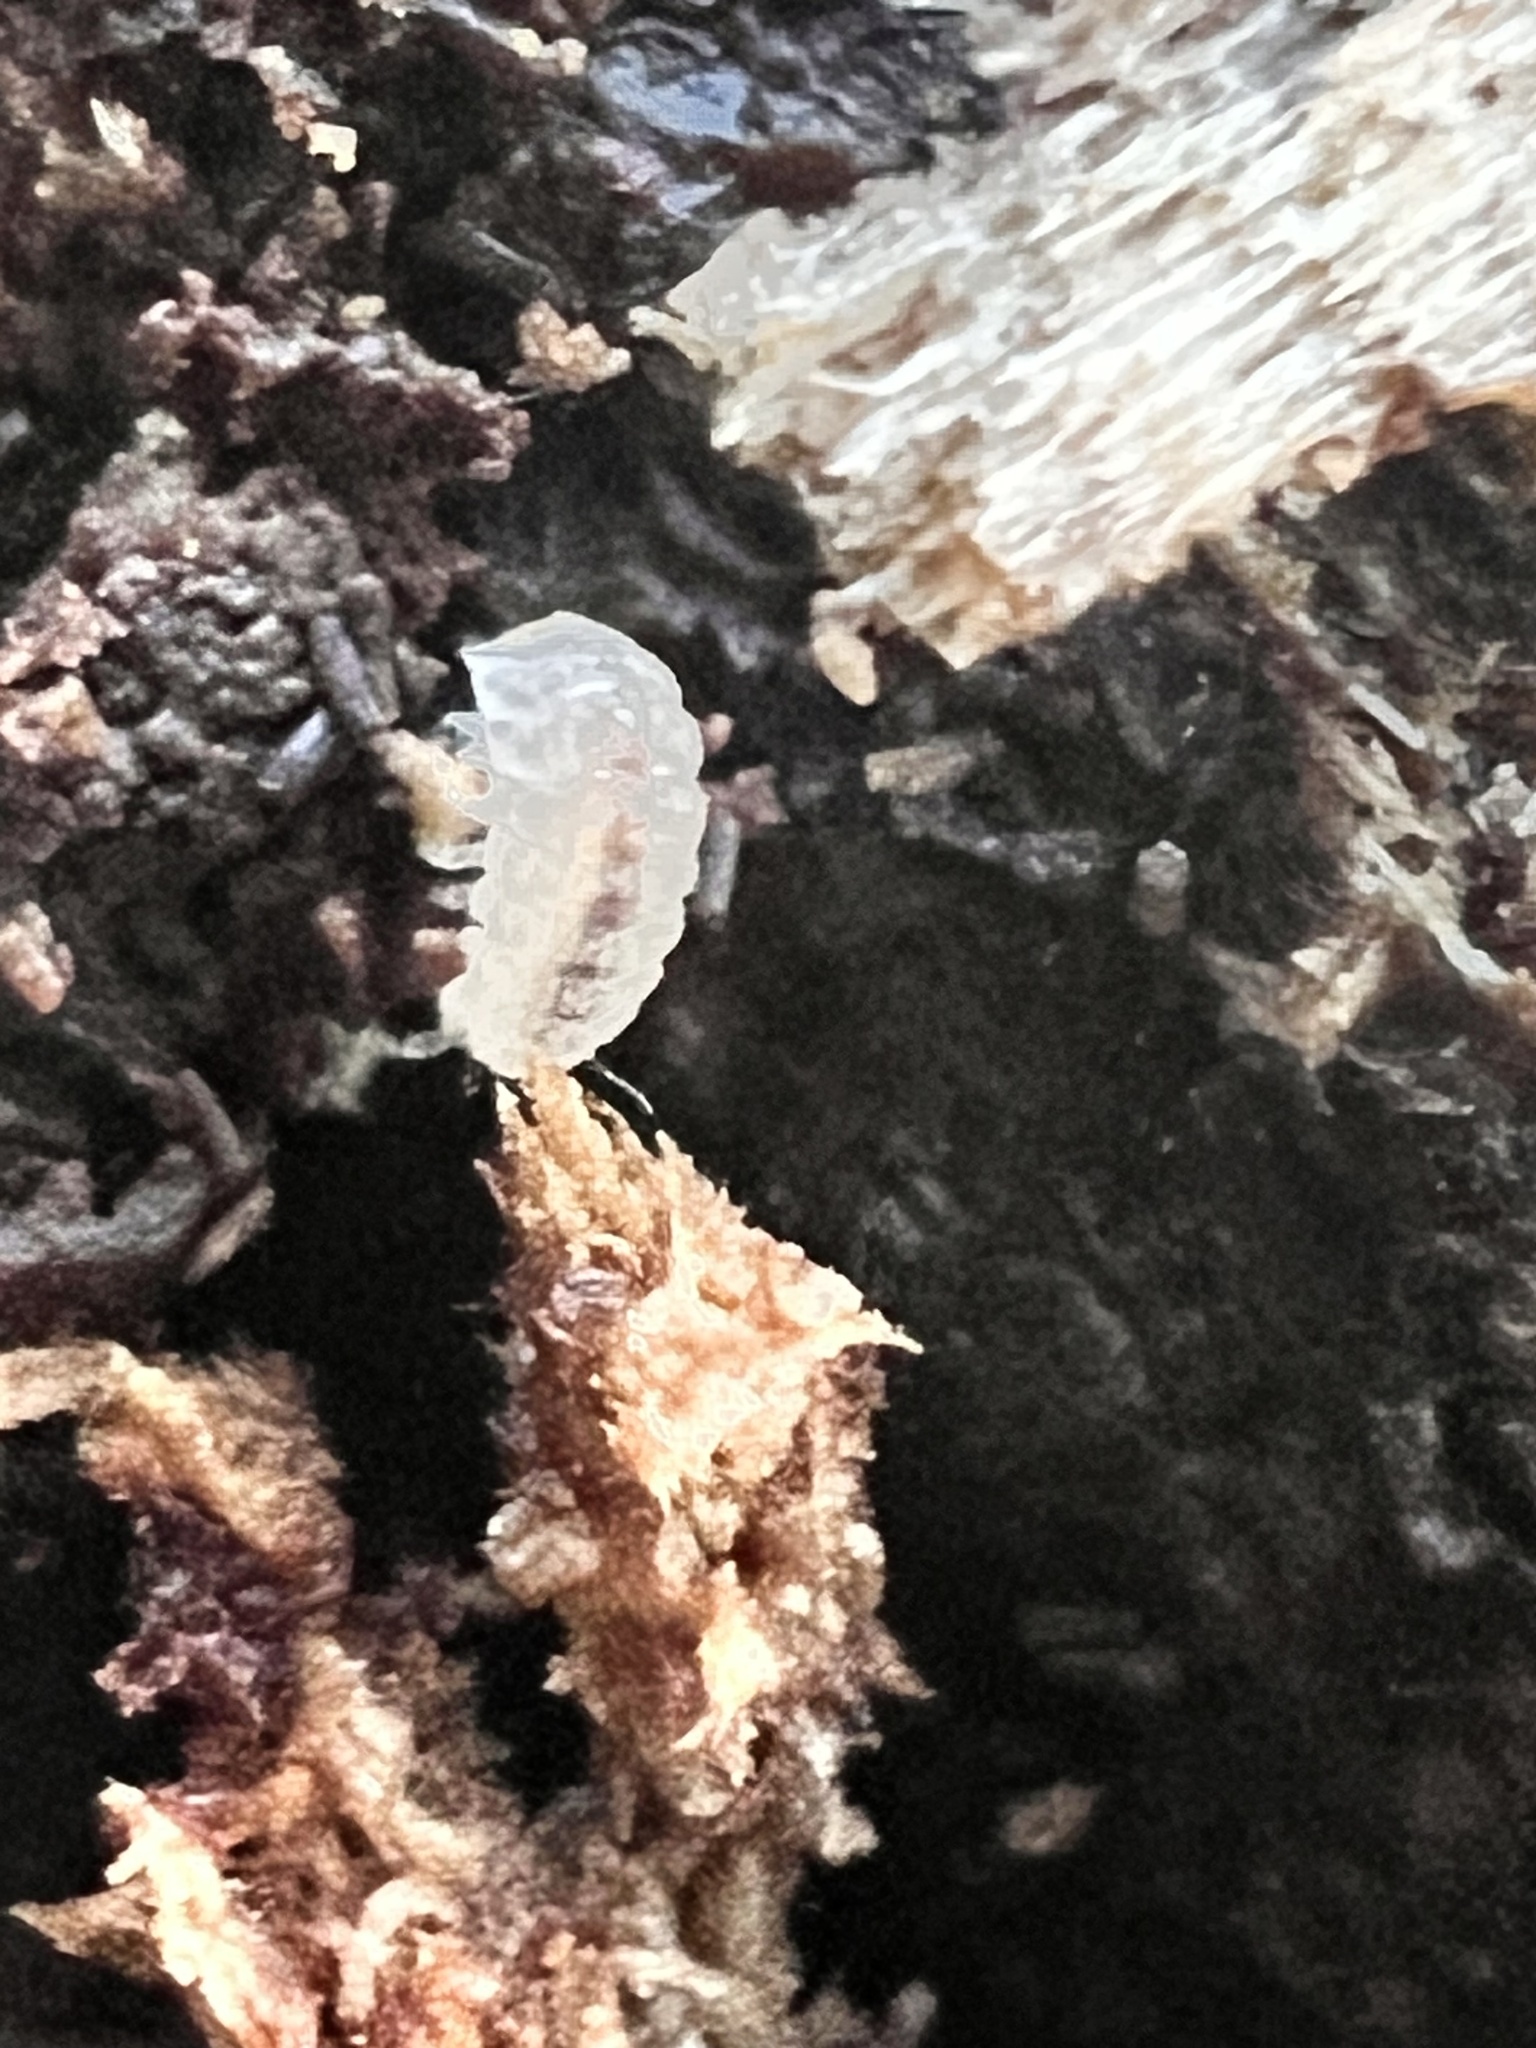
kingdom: Animalia
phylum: Arthropoda
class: Malacostraca
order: Isopoda
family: Trichoniscidae
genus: Haplophthalmus
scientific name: Haplophthalmus danicus
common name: Pillbug
